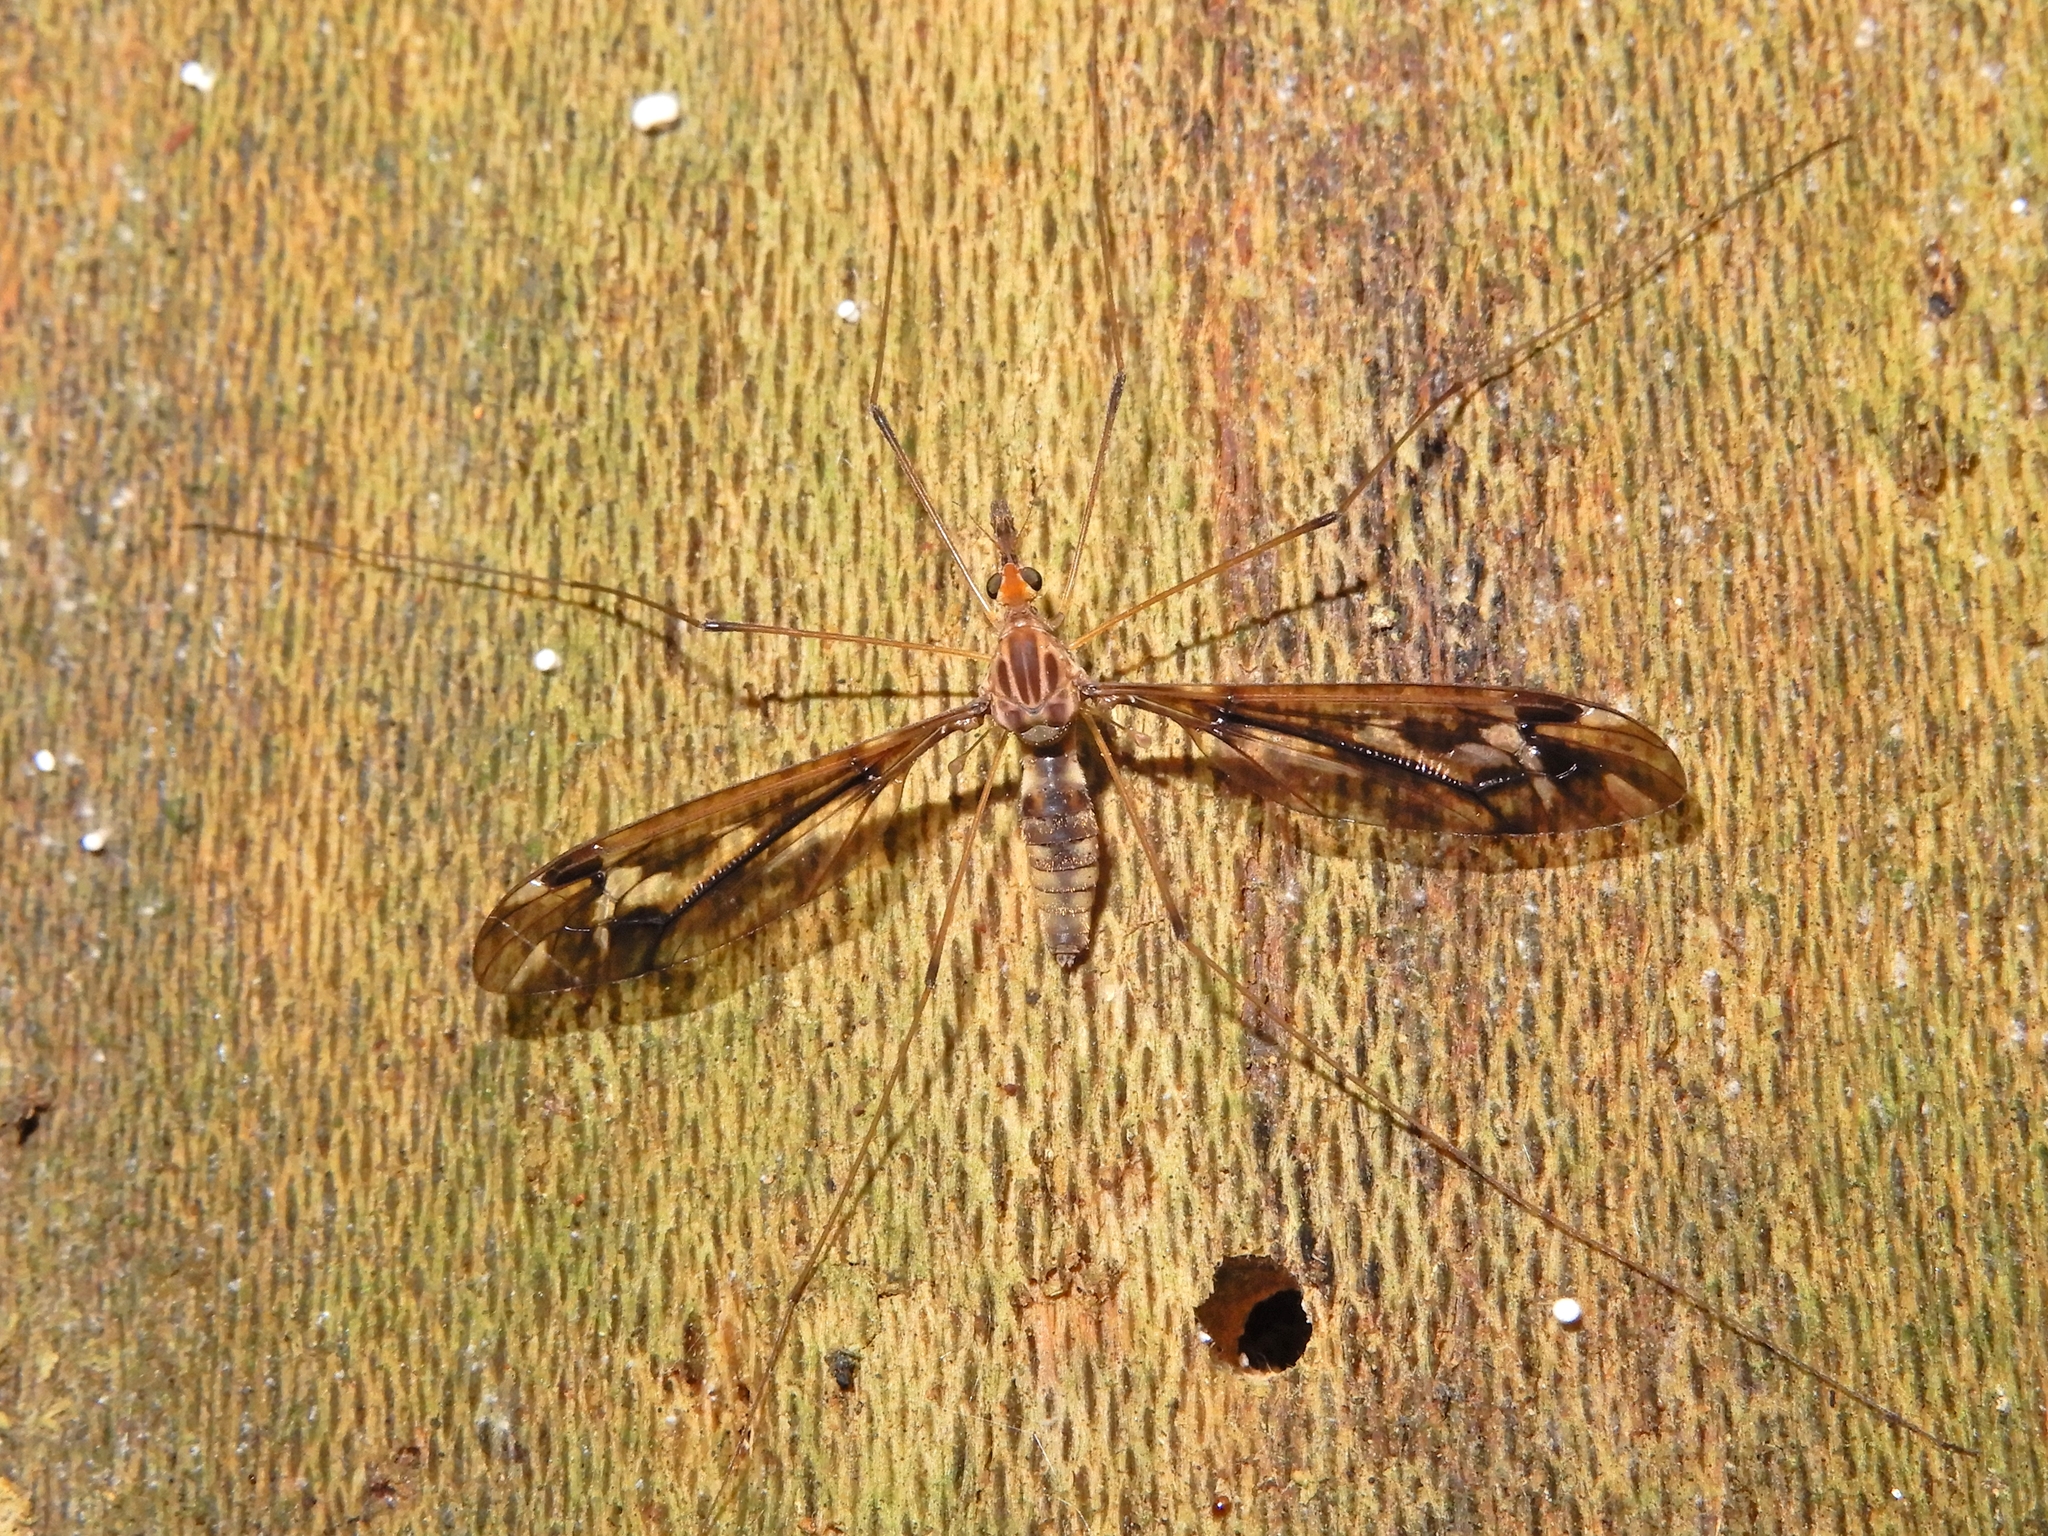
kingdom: Animalia
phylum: Arthropoda
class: Insecta
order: Diptera
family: Tipulidae
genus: Leptotarsus
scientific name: Leptotarsus huttoni
